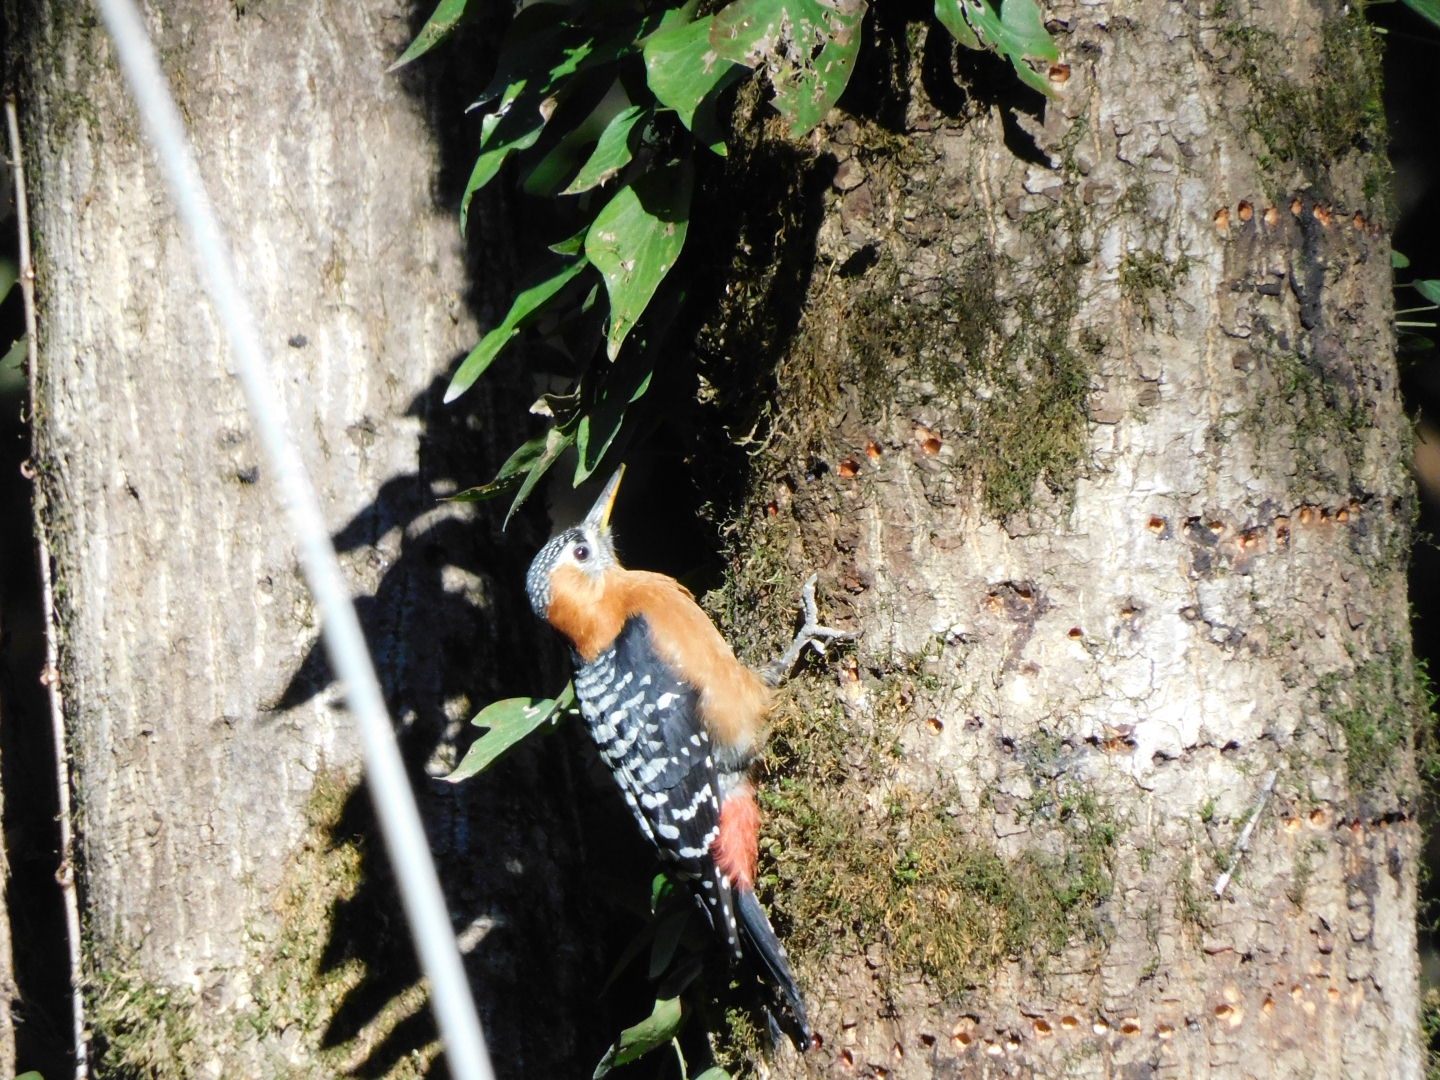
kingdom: Animalia
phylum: Chordata
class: Aves
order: Piciformes
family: Picidae
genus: Dendrocopos
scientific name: Dendrocopos hyperythrus
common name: Rufous-bellied woodpecker
